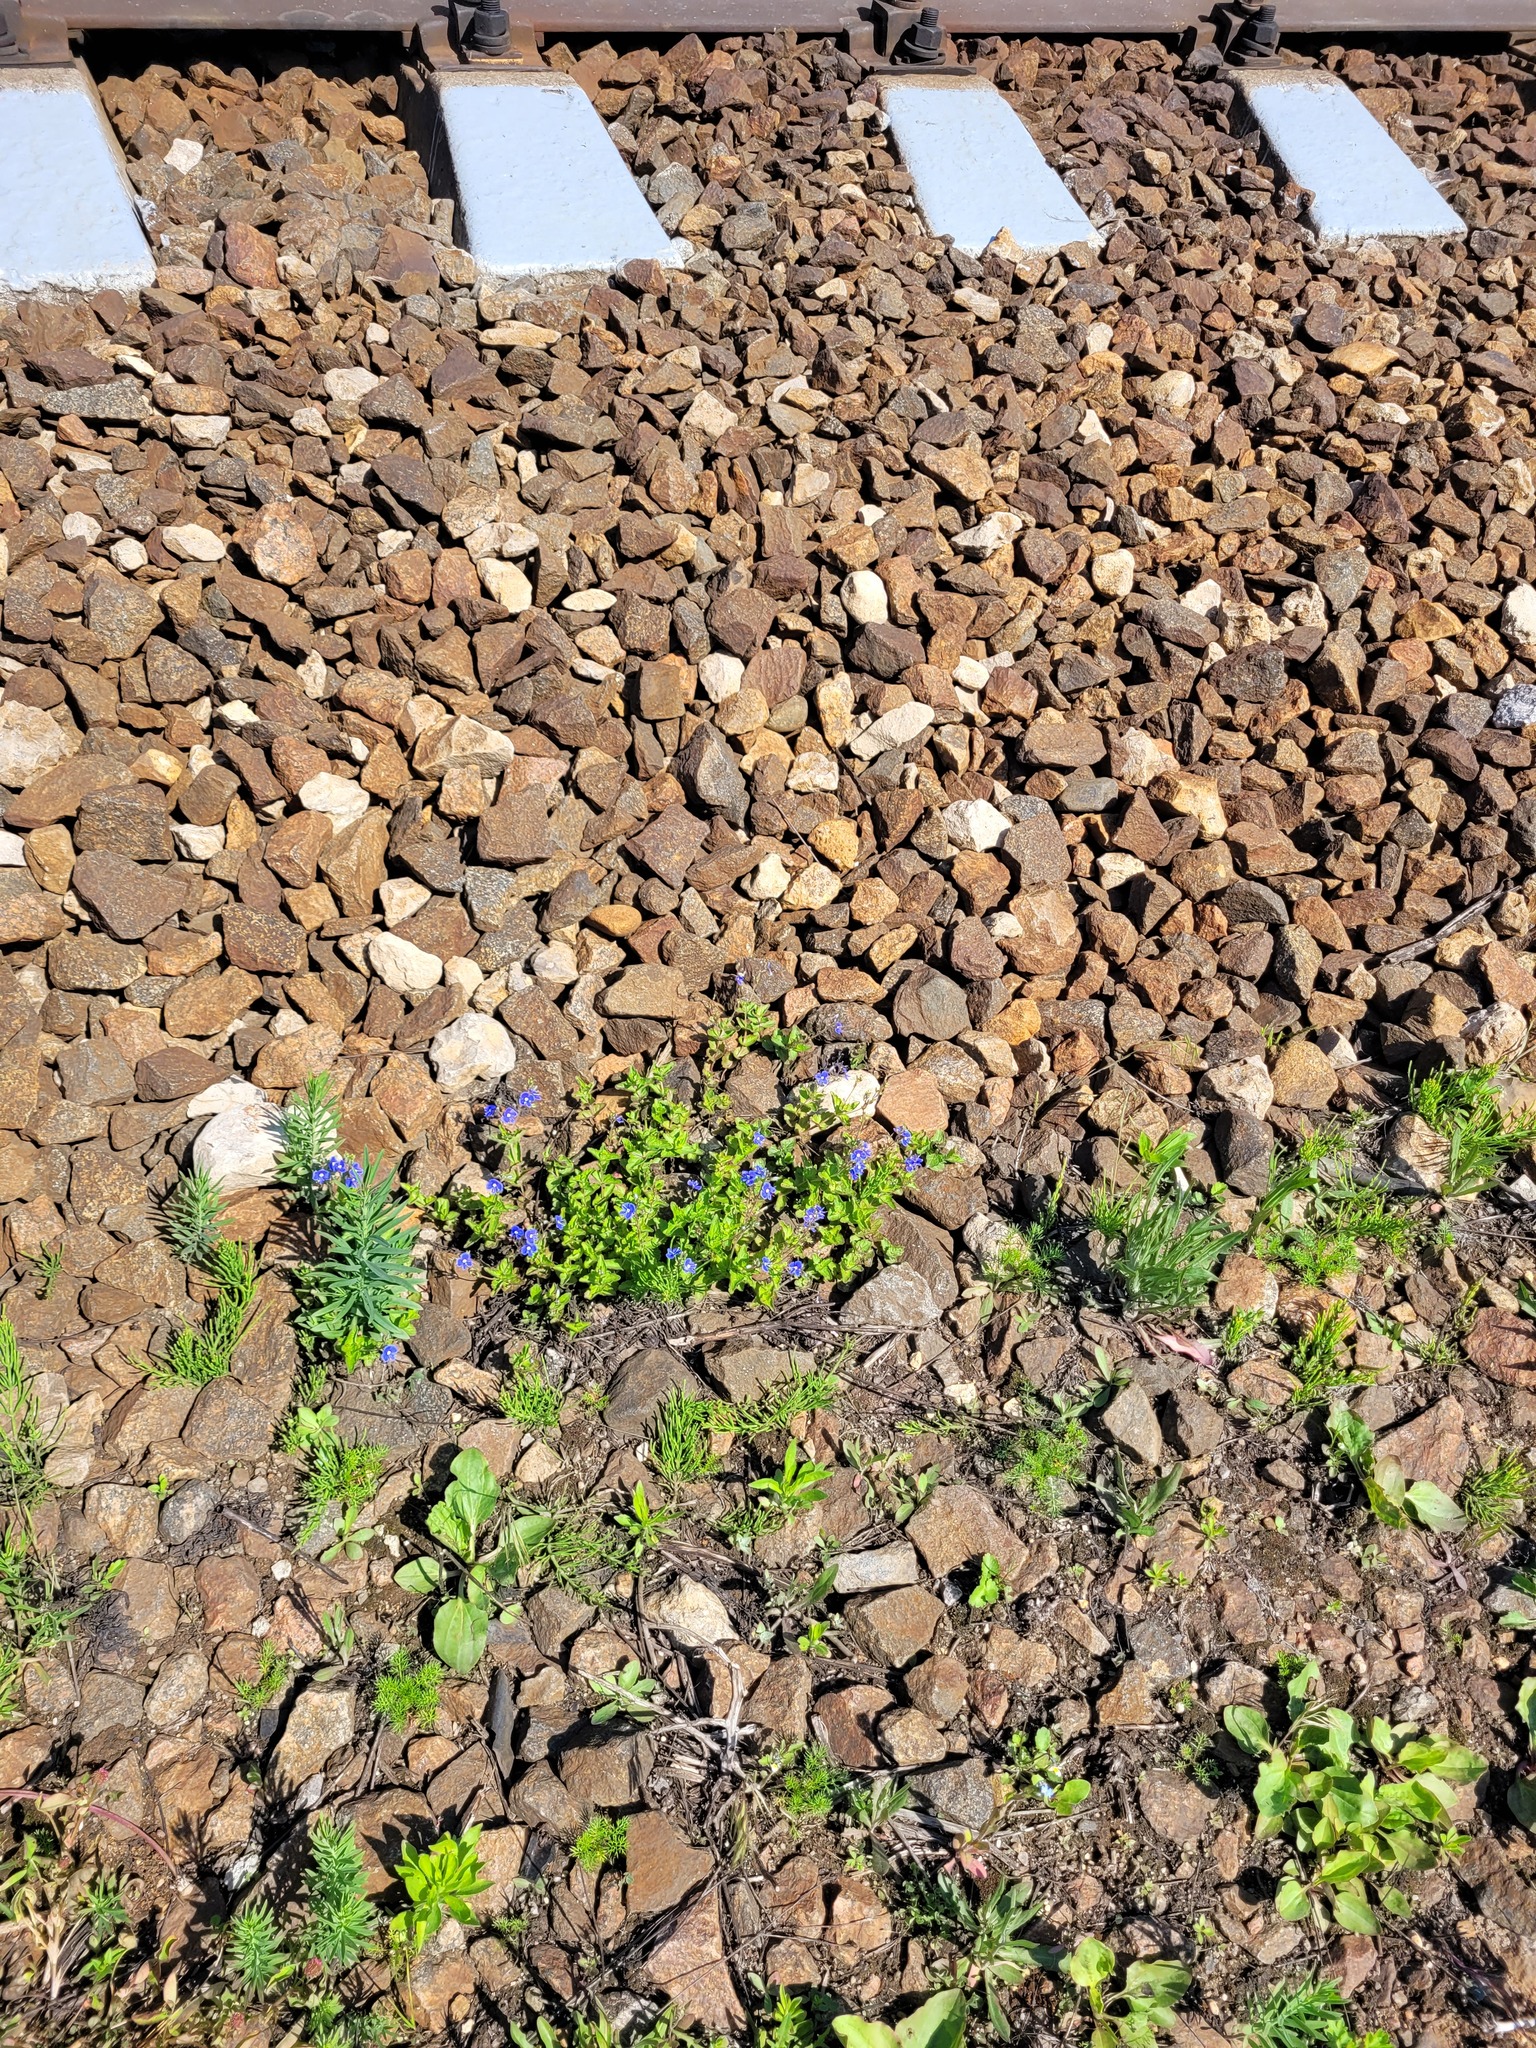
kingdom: Plantae
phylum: Tracheophyta
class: Magnoliopsida
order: Lamiales
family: Plantaginaceae
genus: Veronica
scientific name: Veronica chamaedrys
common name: Germander speedwell
